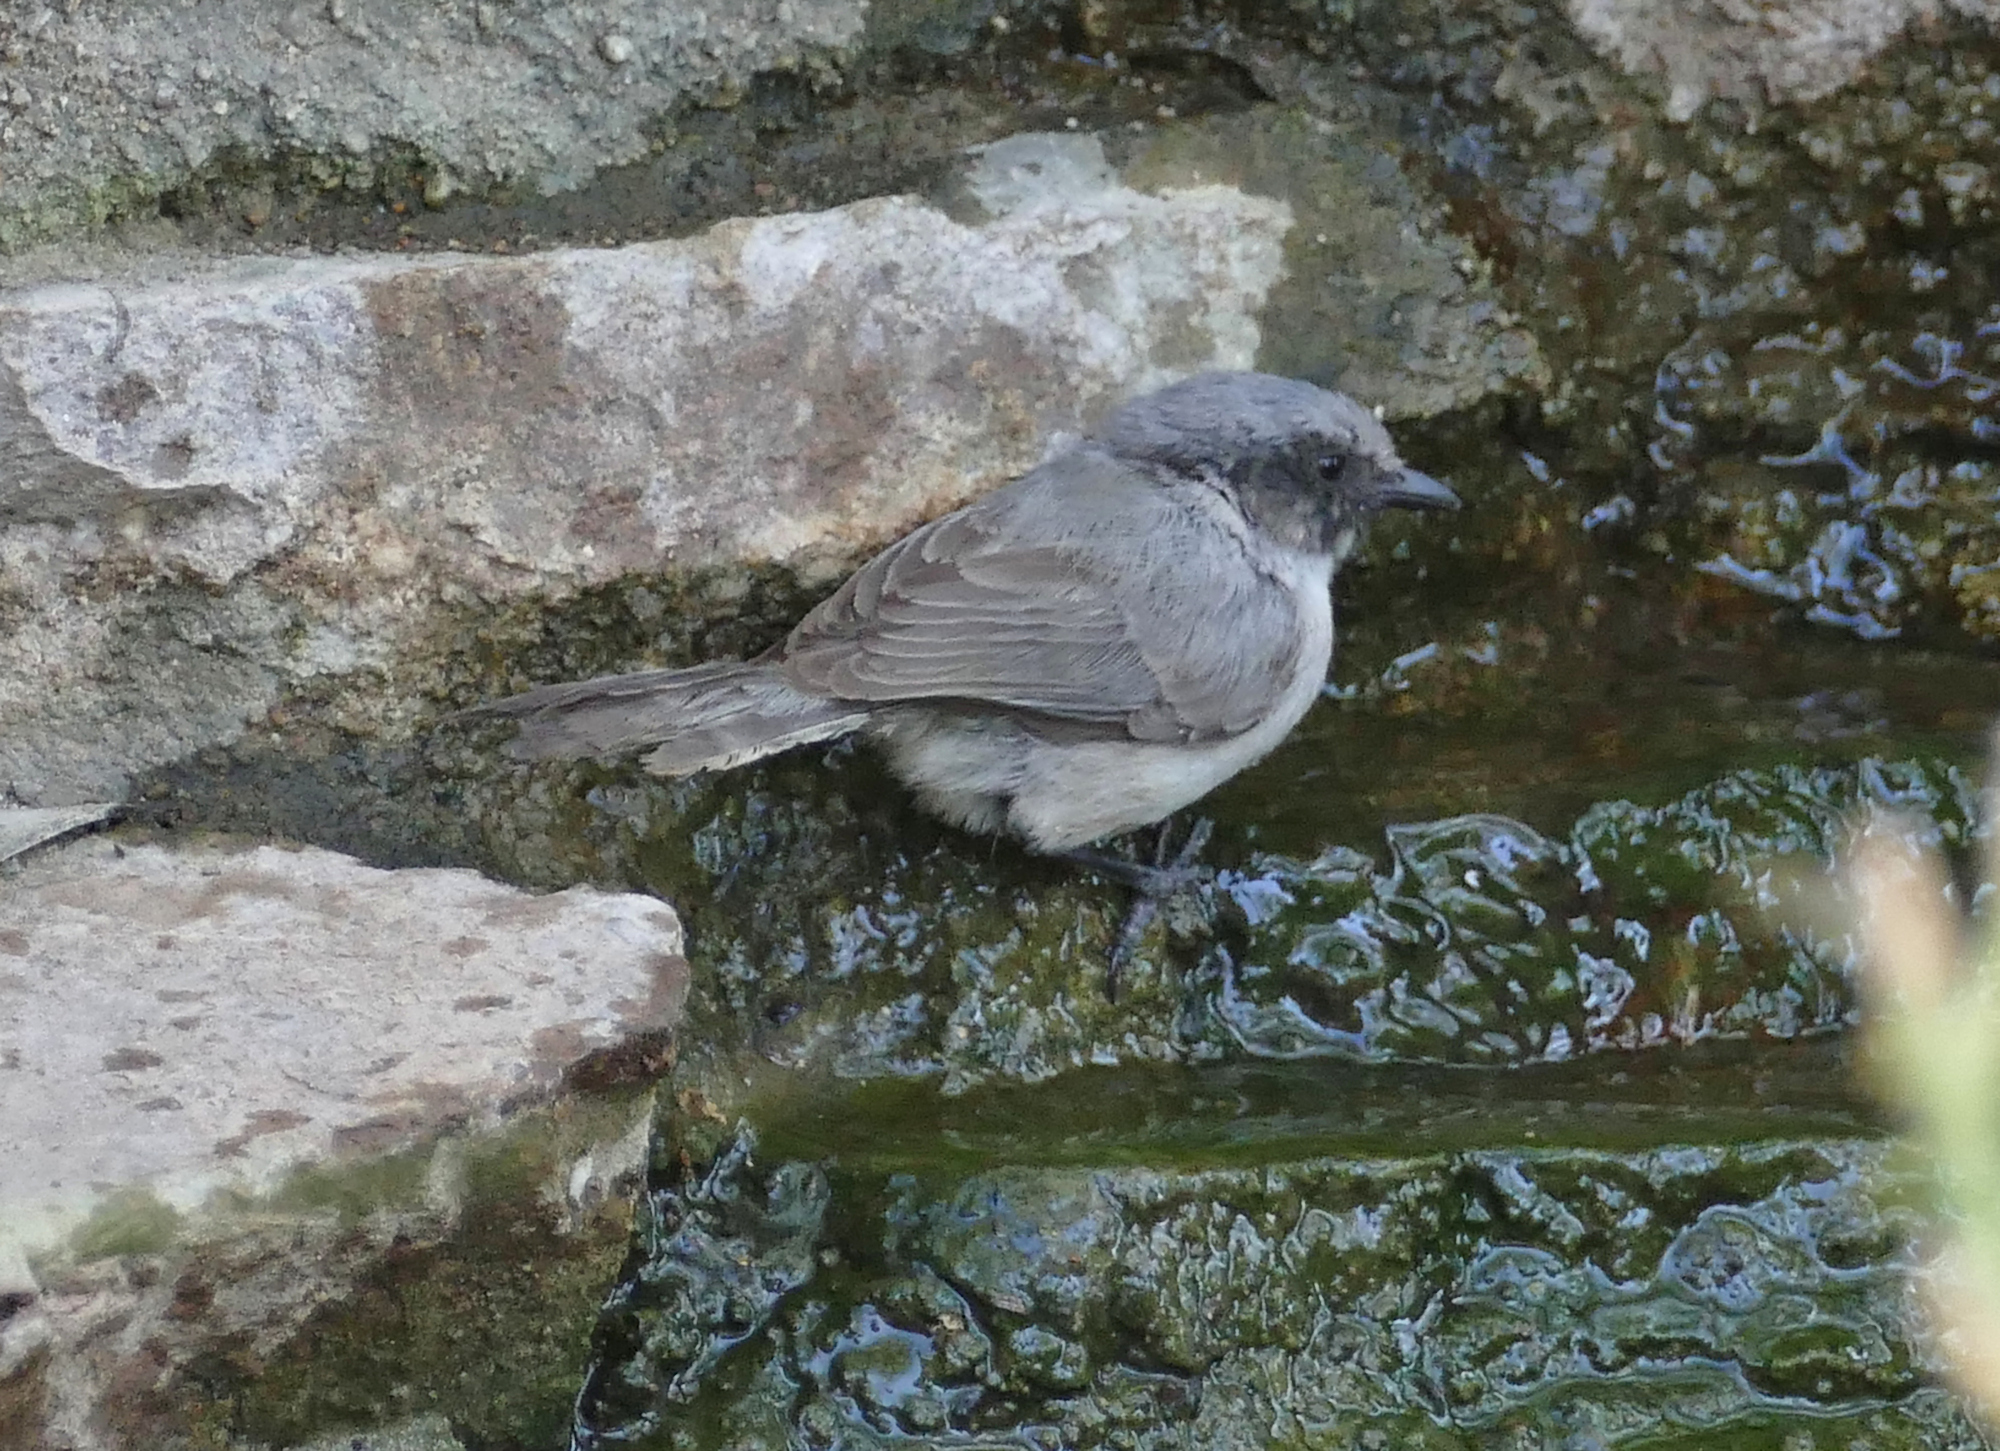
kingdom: Animalia
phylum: Chordata
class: Aves
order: Passeriformes
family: Aegithalidae
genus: Psaltriparus
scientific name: Psaltriparus minimus
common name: American bushtit
